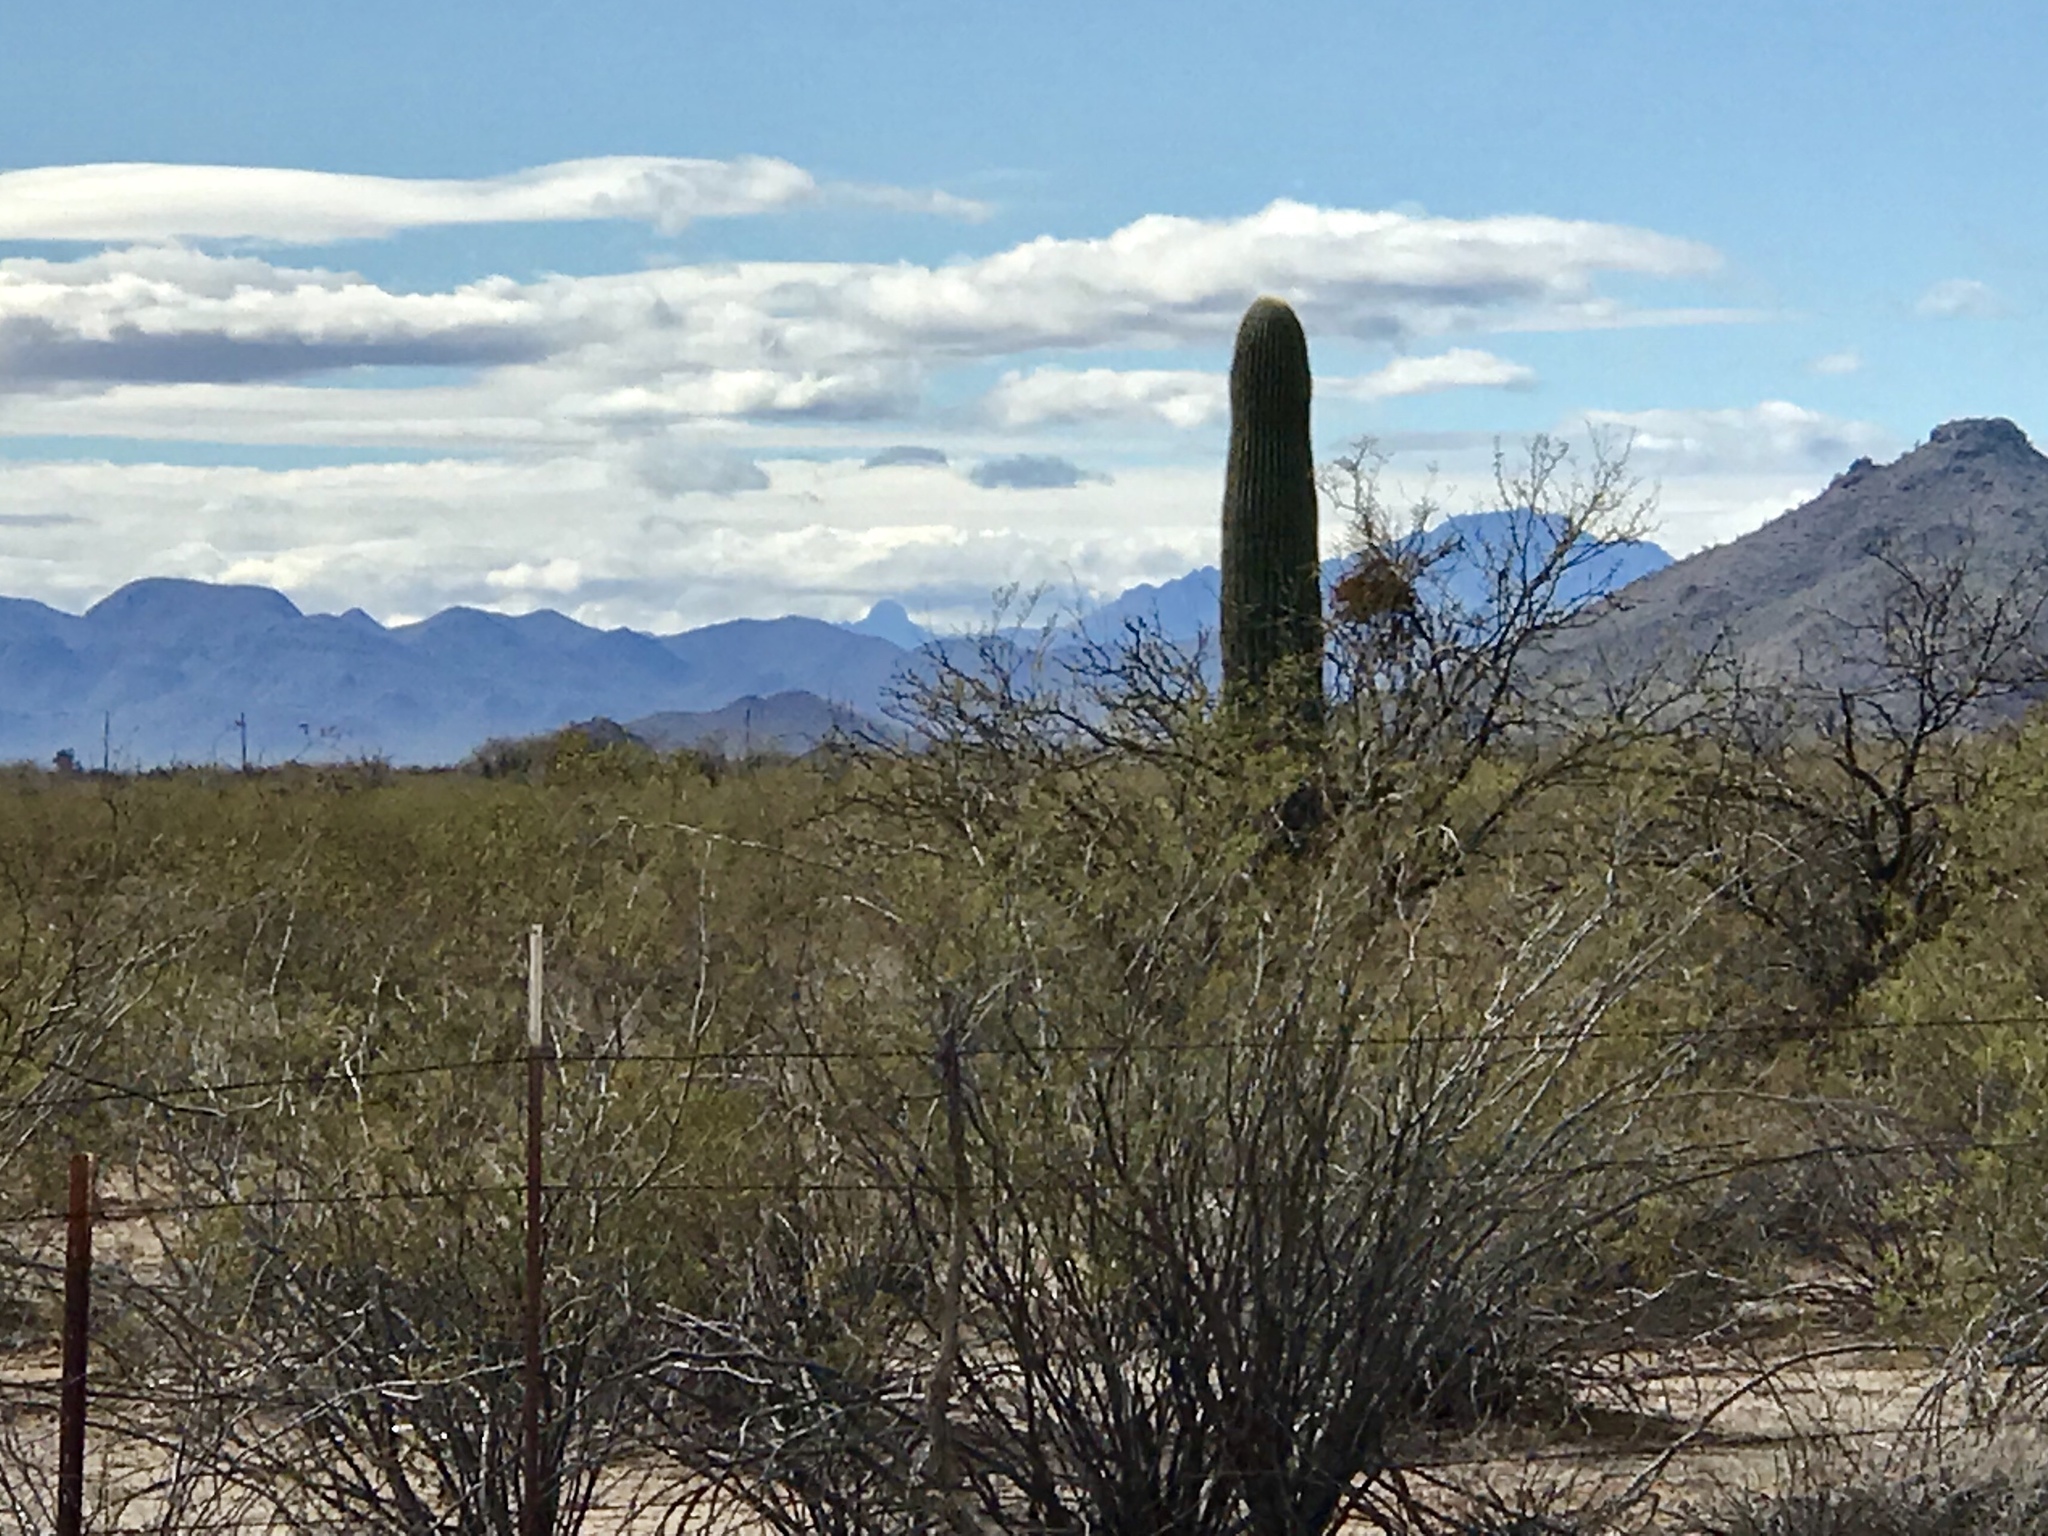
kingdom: Plantae
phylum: Tracheophyta
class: Magnoliopsida
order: Zygophyllales
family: Zygophyllaceae
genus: Larrea
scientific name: Larrea tridentata
